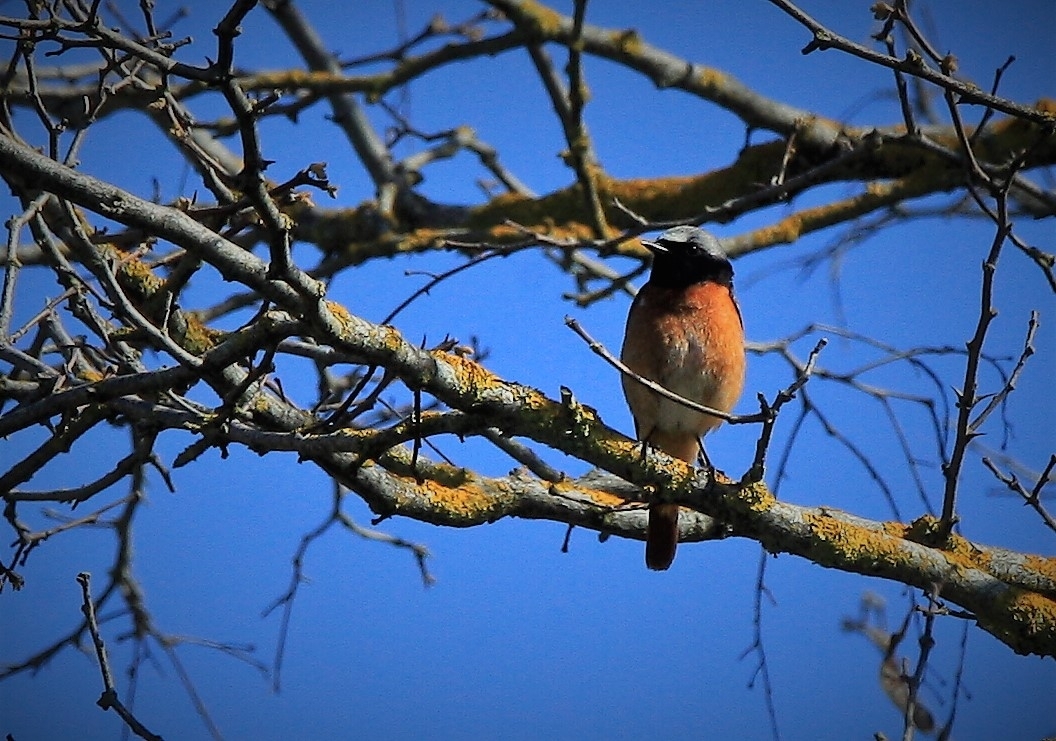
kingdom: Animalia
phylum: Chordata
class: Aves
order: Passeriformes
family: Muscicapidae
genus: Phoenicurus
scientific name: Phoenicurus phoenicurus
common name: Common redstart
